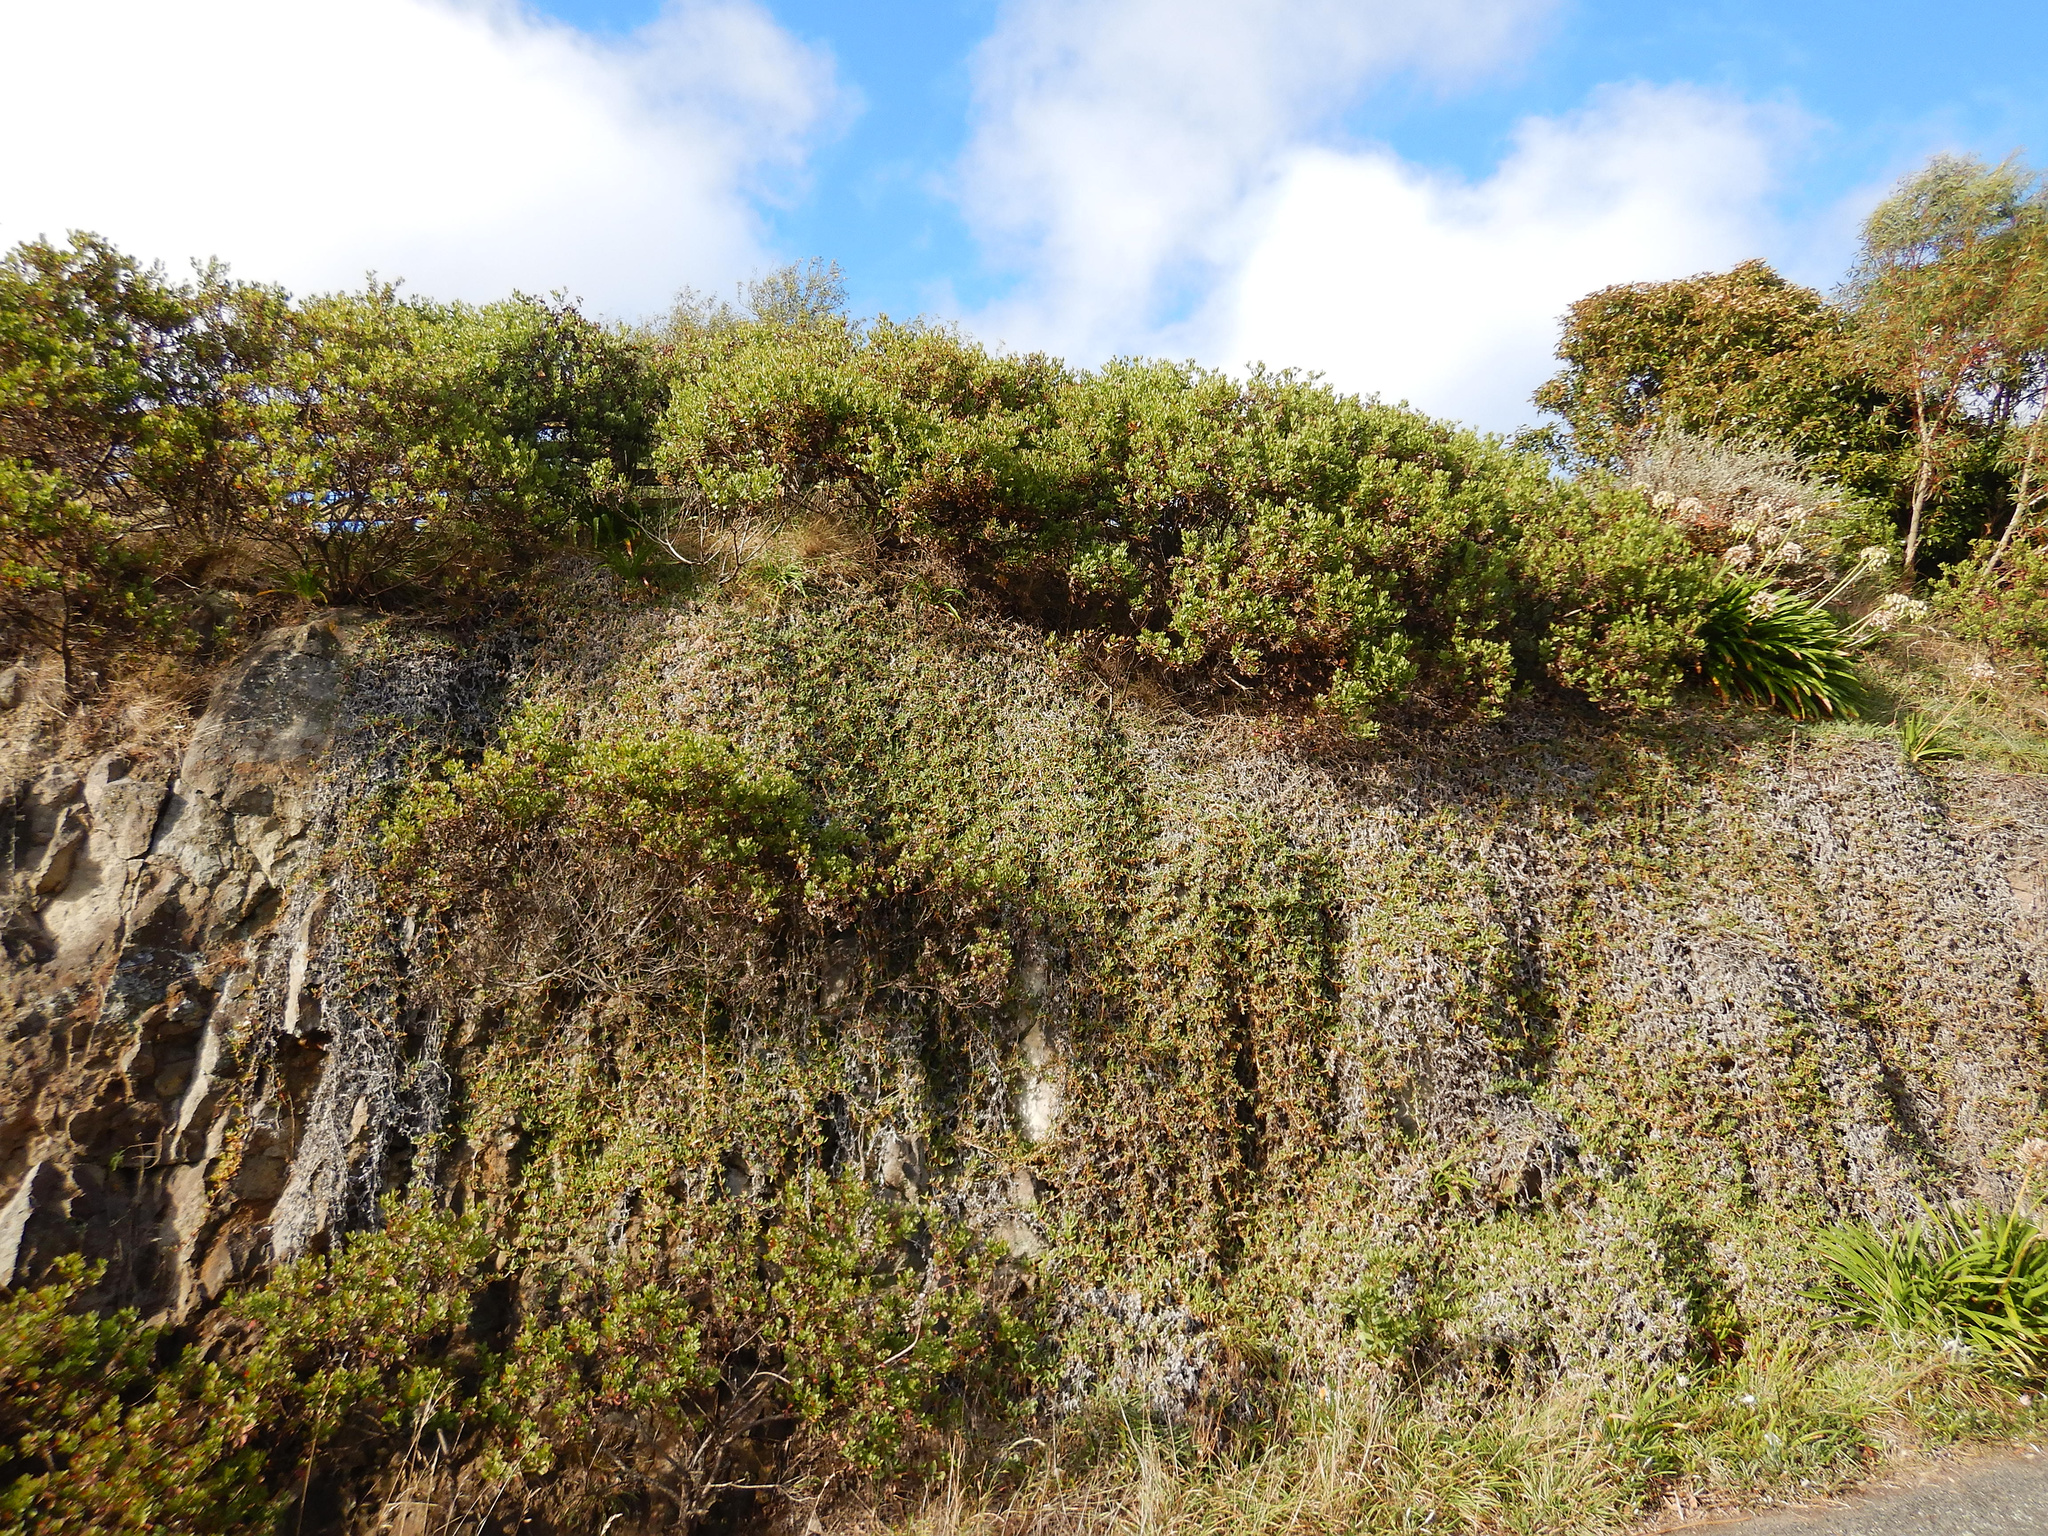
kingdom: Plantae
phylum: Tracheophyta
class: Magnoliopsida
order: Asterales
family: Asteraceae
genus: Osteospermum
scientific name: Osteospermum moniliferum
